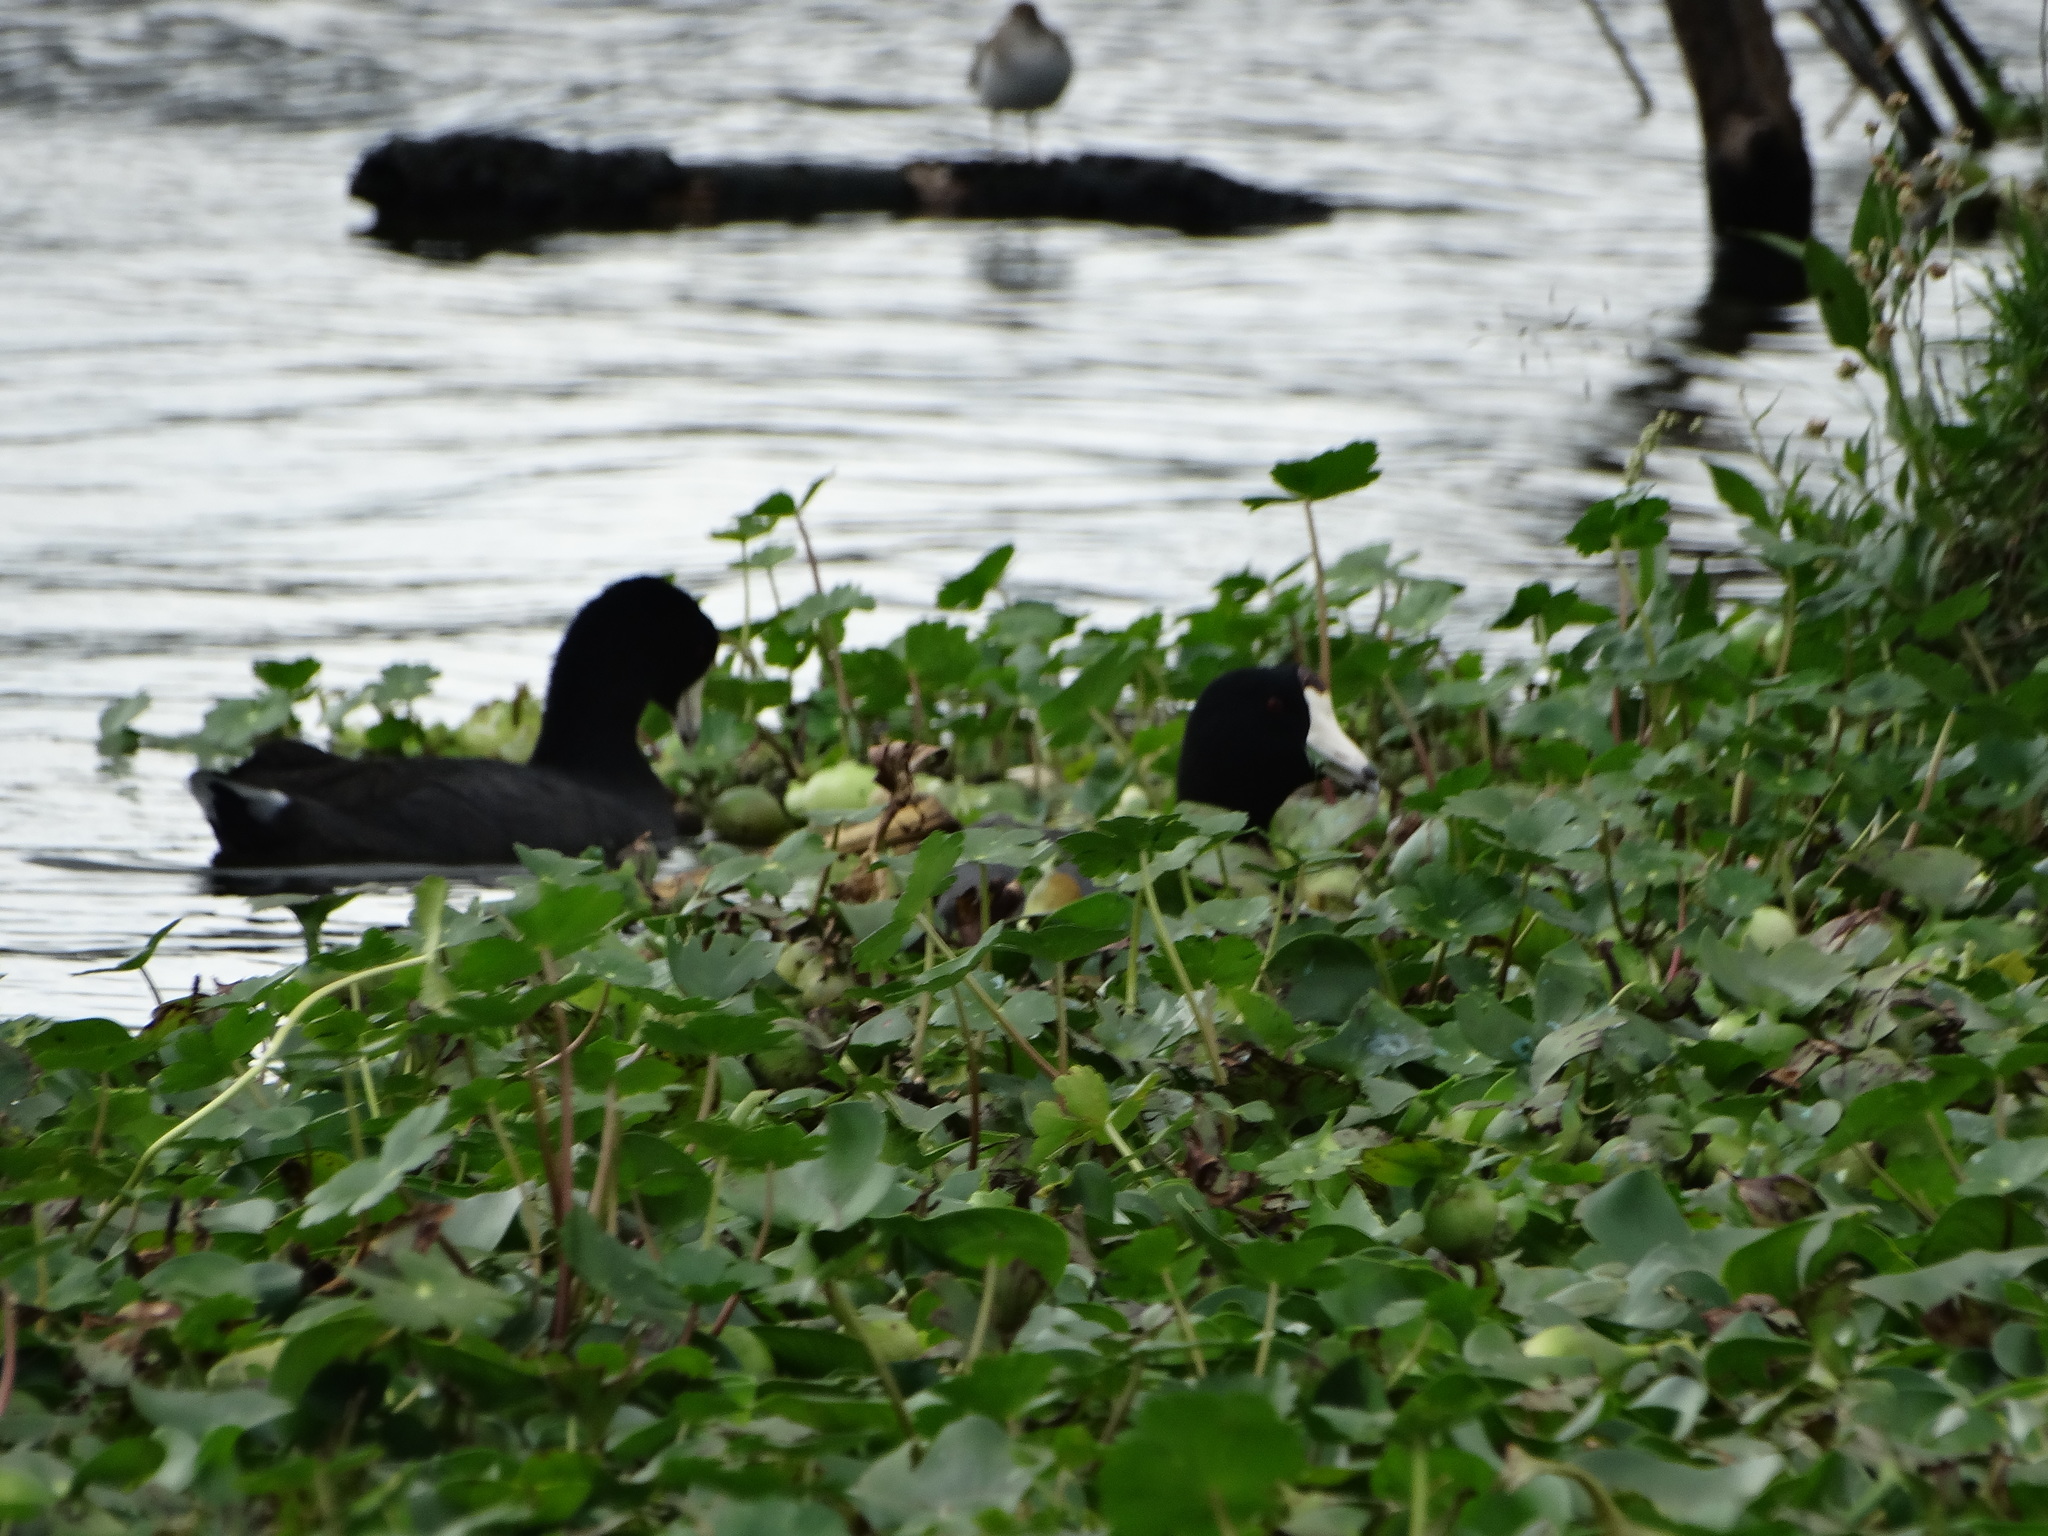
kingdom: Animalia
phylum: Chordata
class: Aves
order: Gruiformes
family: Rallidae
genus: Fulica
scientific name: Fulica americana
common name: American coot
